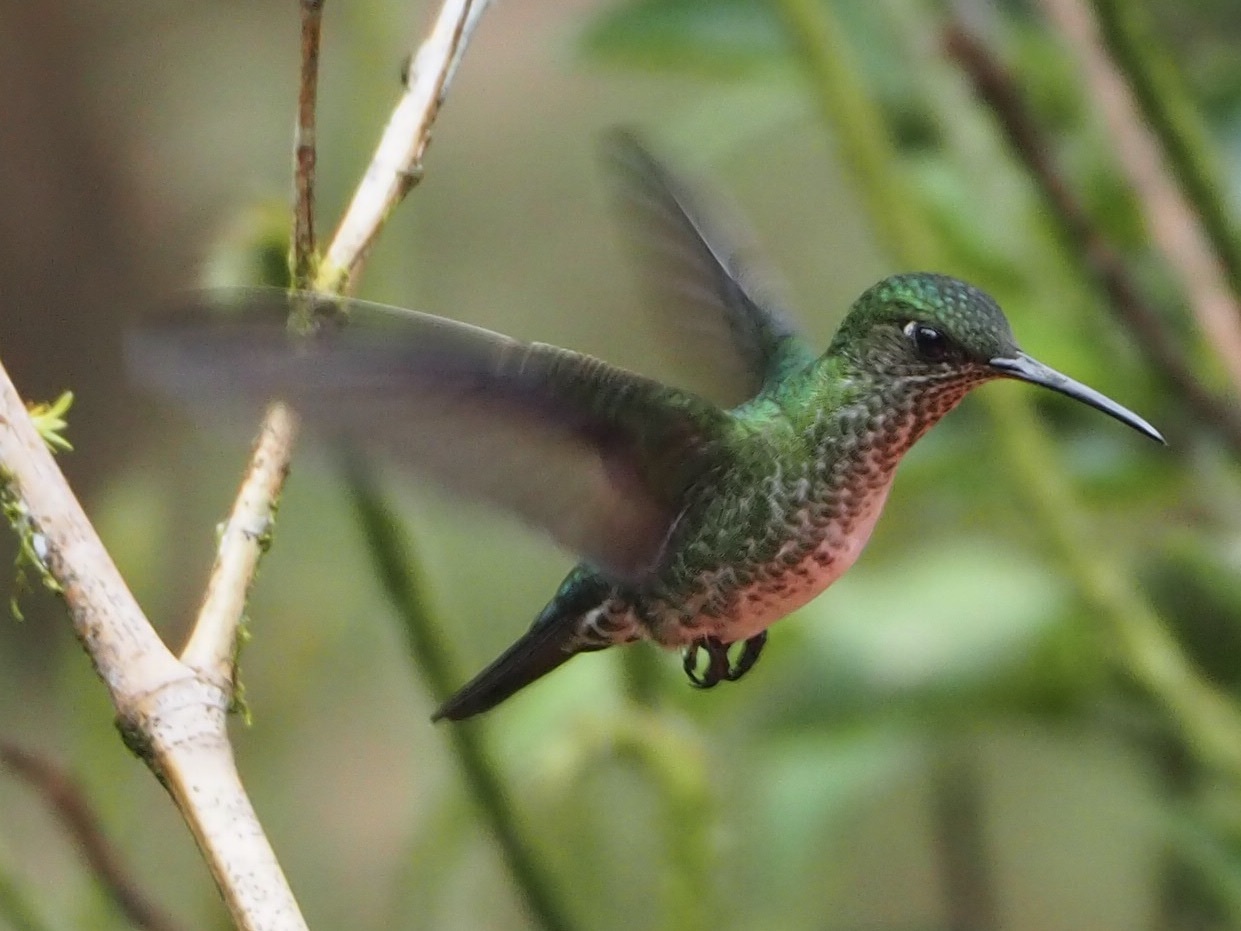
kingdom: Animalia
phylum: Chordata
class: Aves
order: Apodiformes
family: Trochilidae
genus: Taphrospilus
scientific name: Taphrospilus hypostictus
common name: Many-spotted hummingbird
